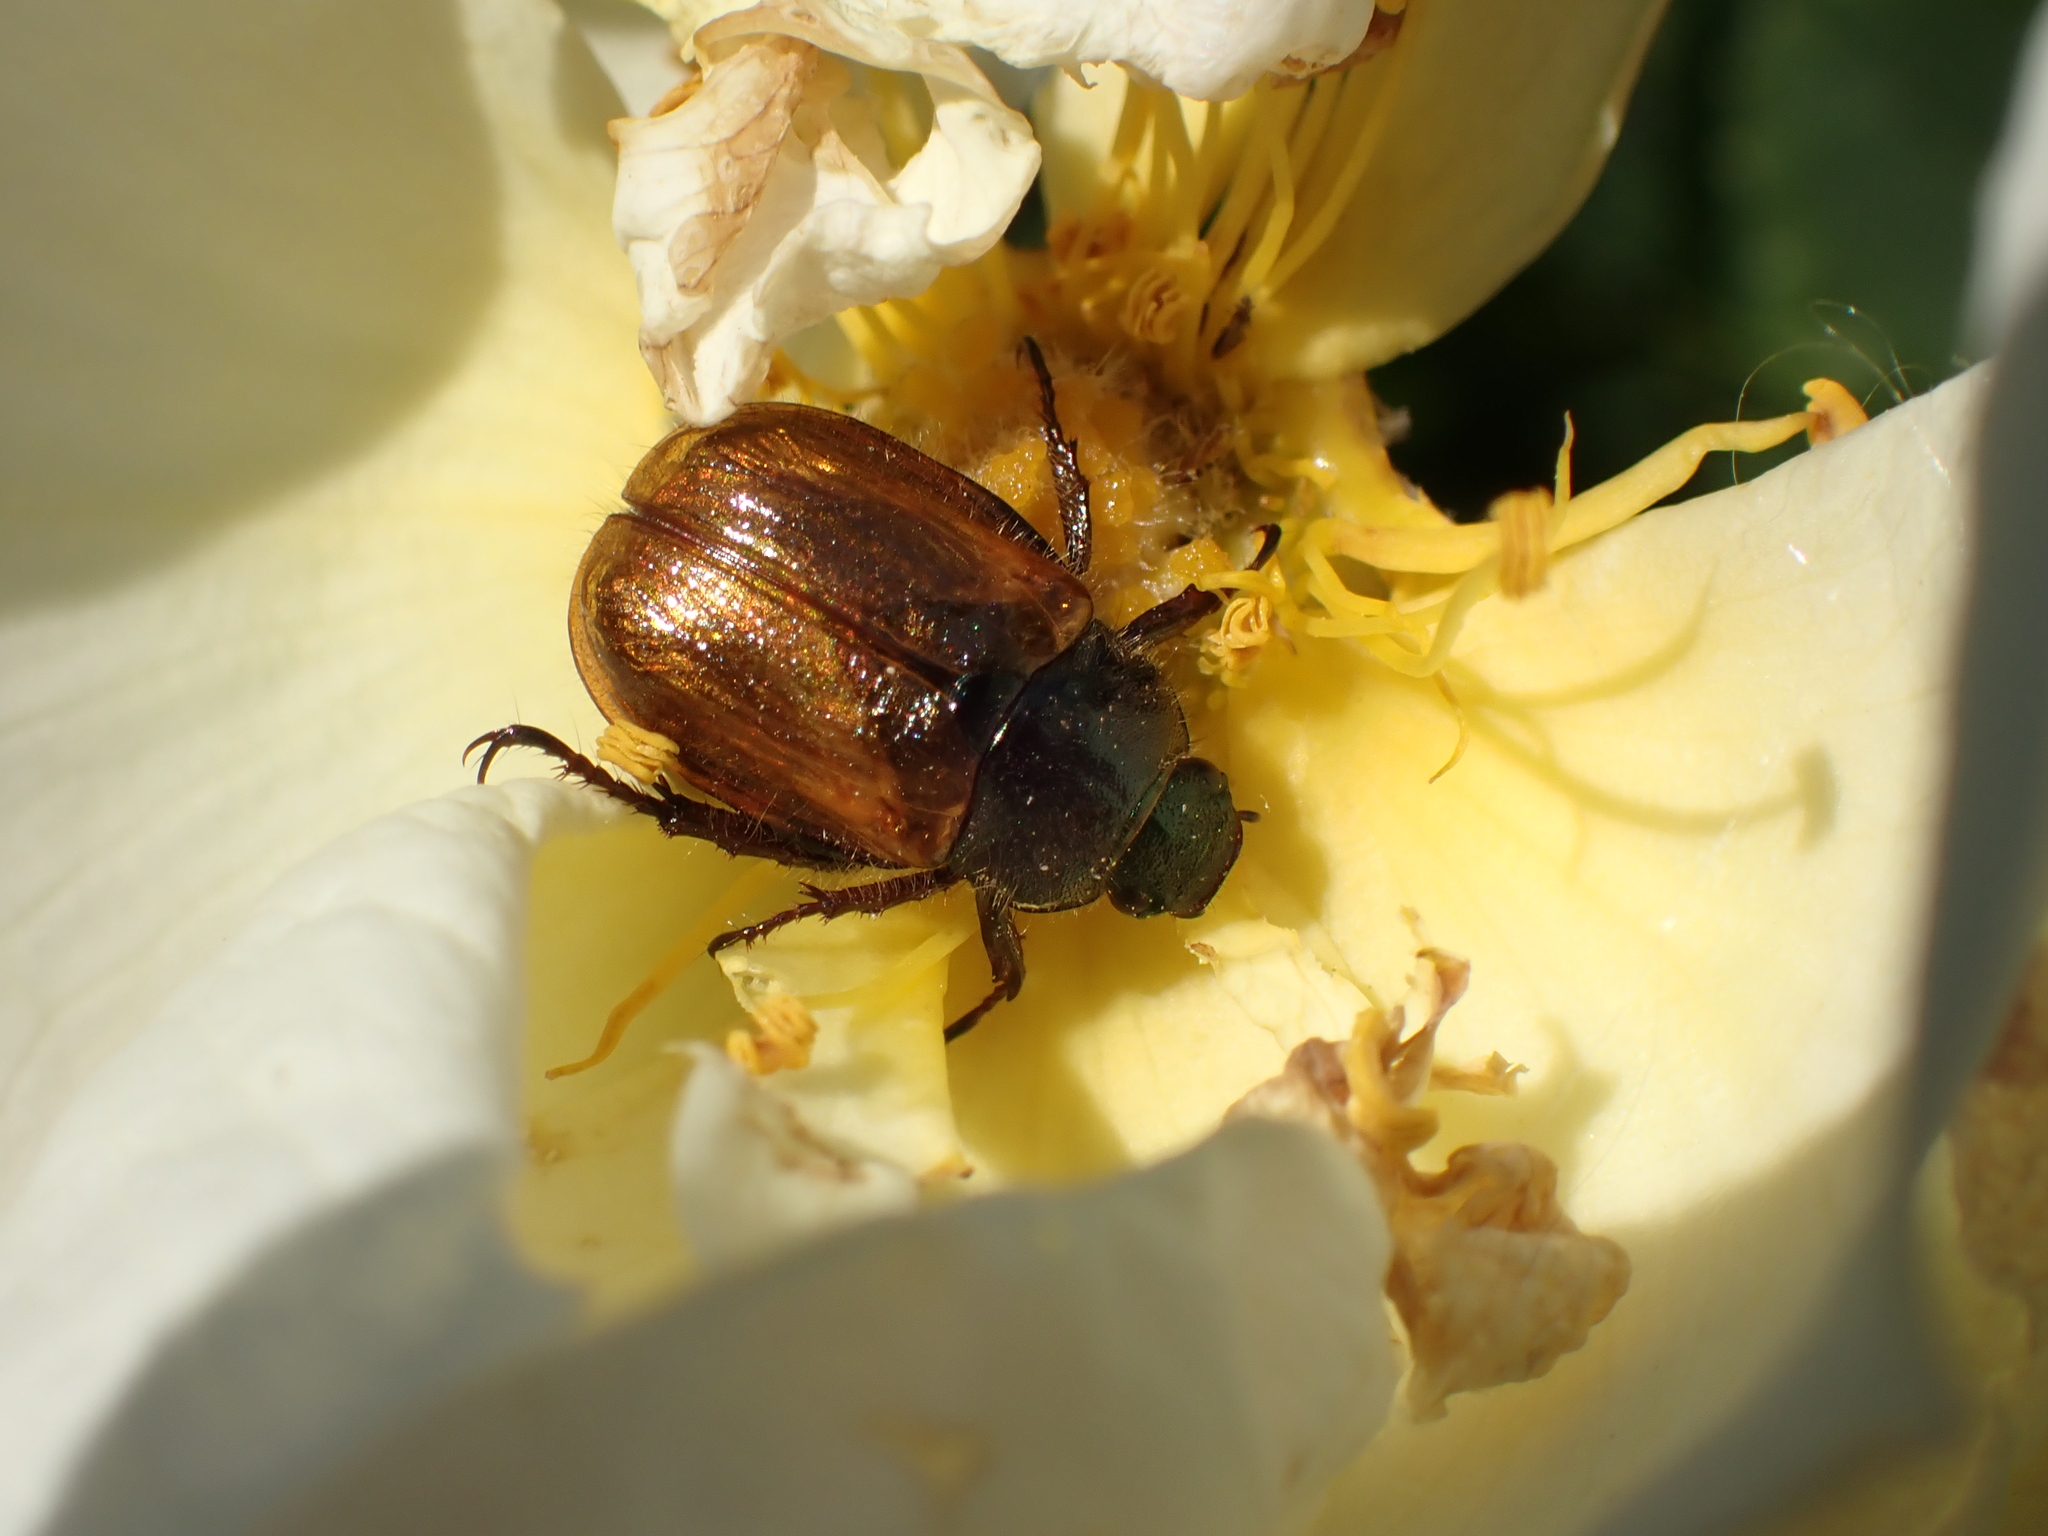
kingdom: Animalia
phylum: Arthropoda
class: Insecta
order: Coleoptera
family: Scarabaeidae
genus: Phyllopertha
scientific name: Phyllopertha horticola
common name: Garden chafer
